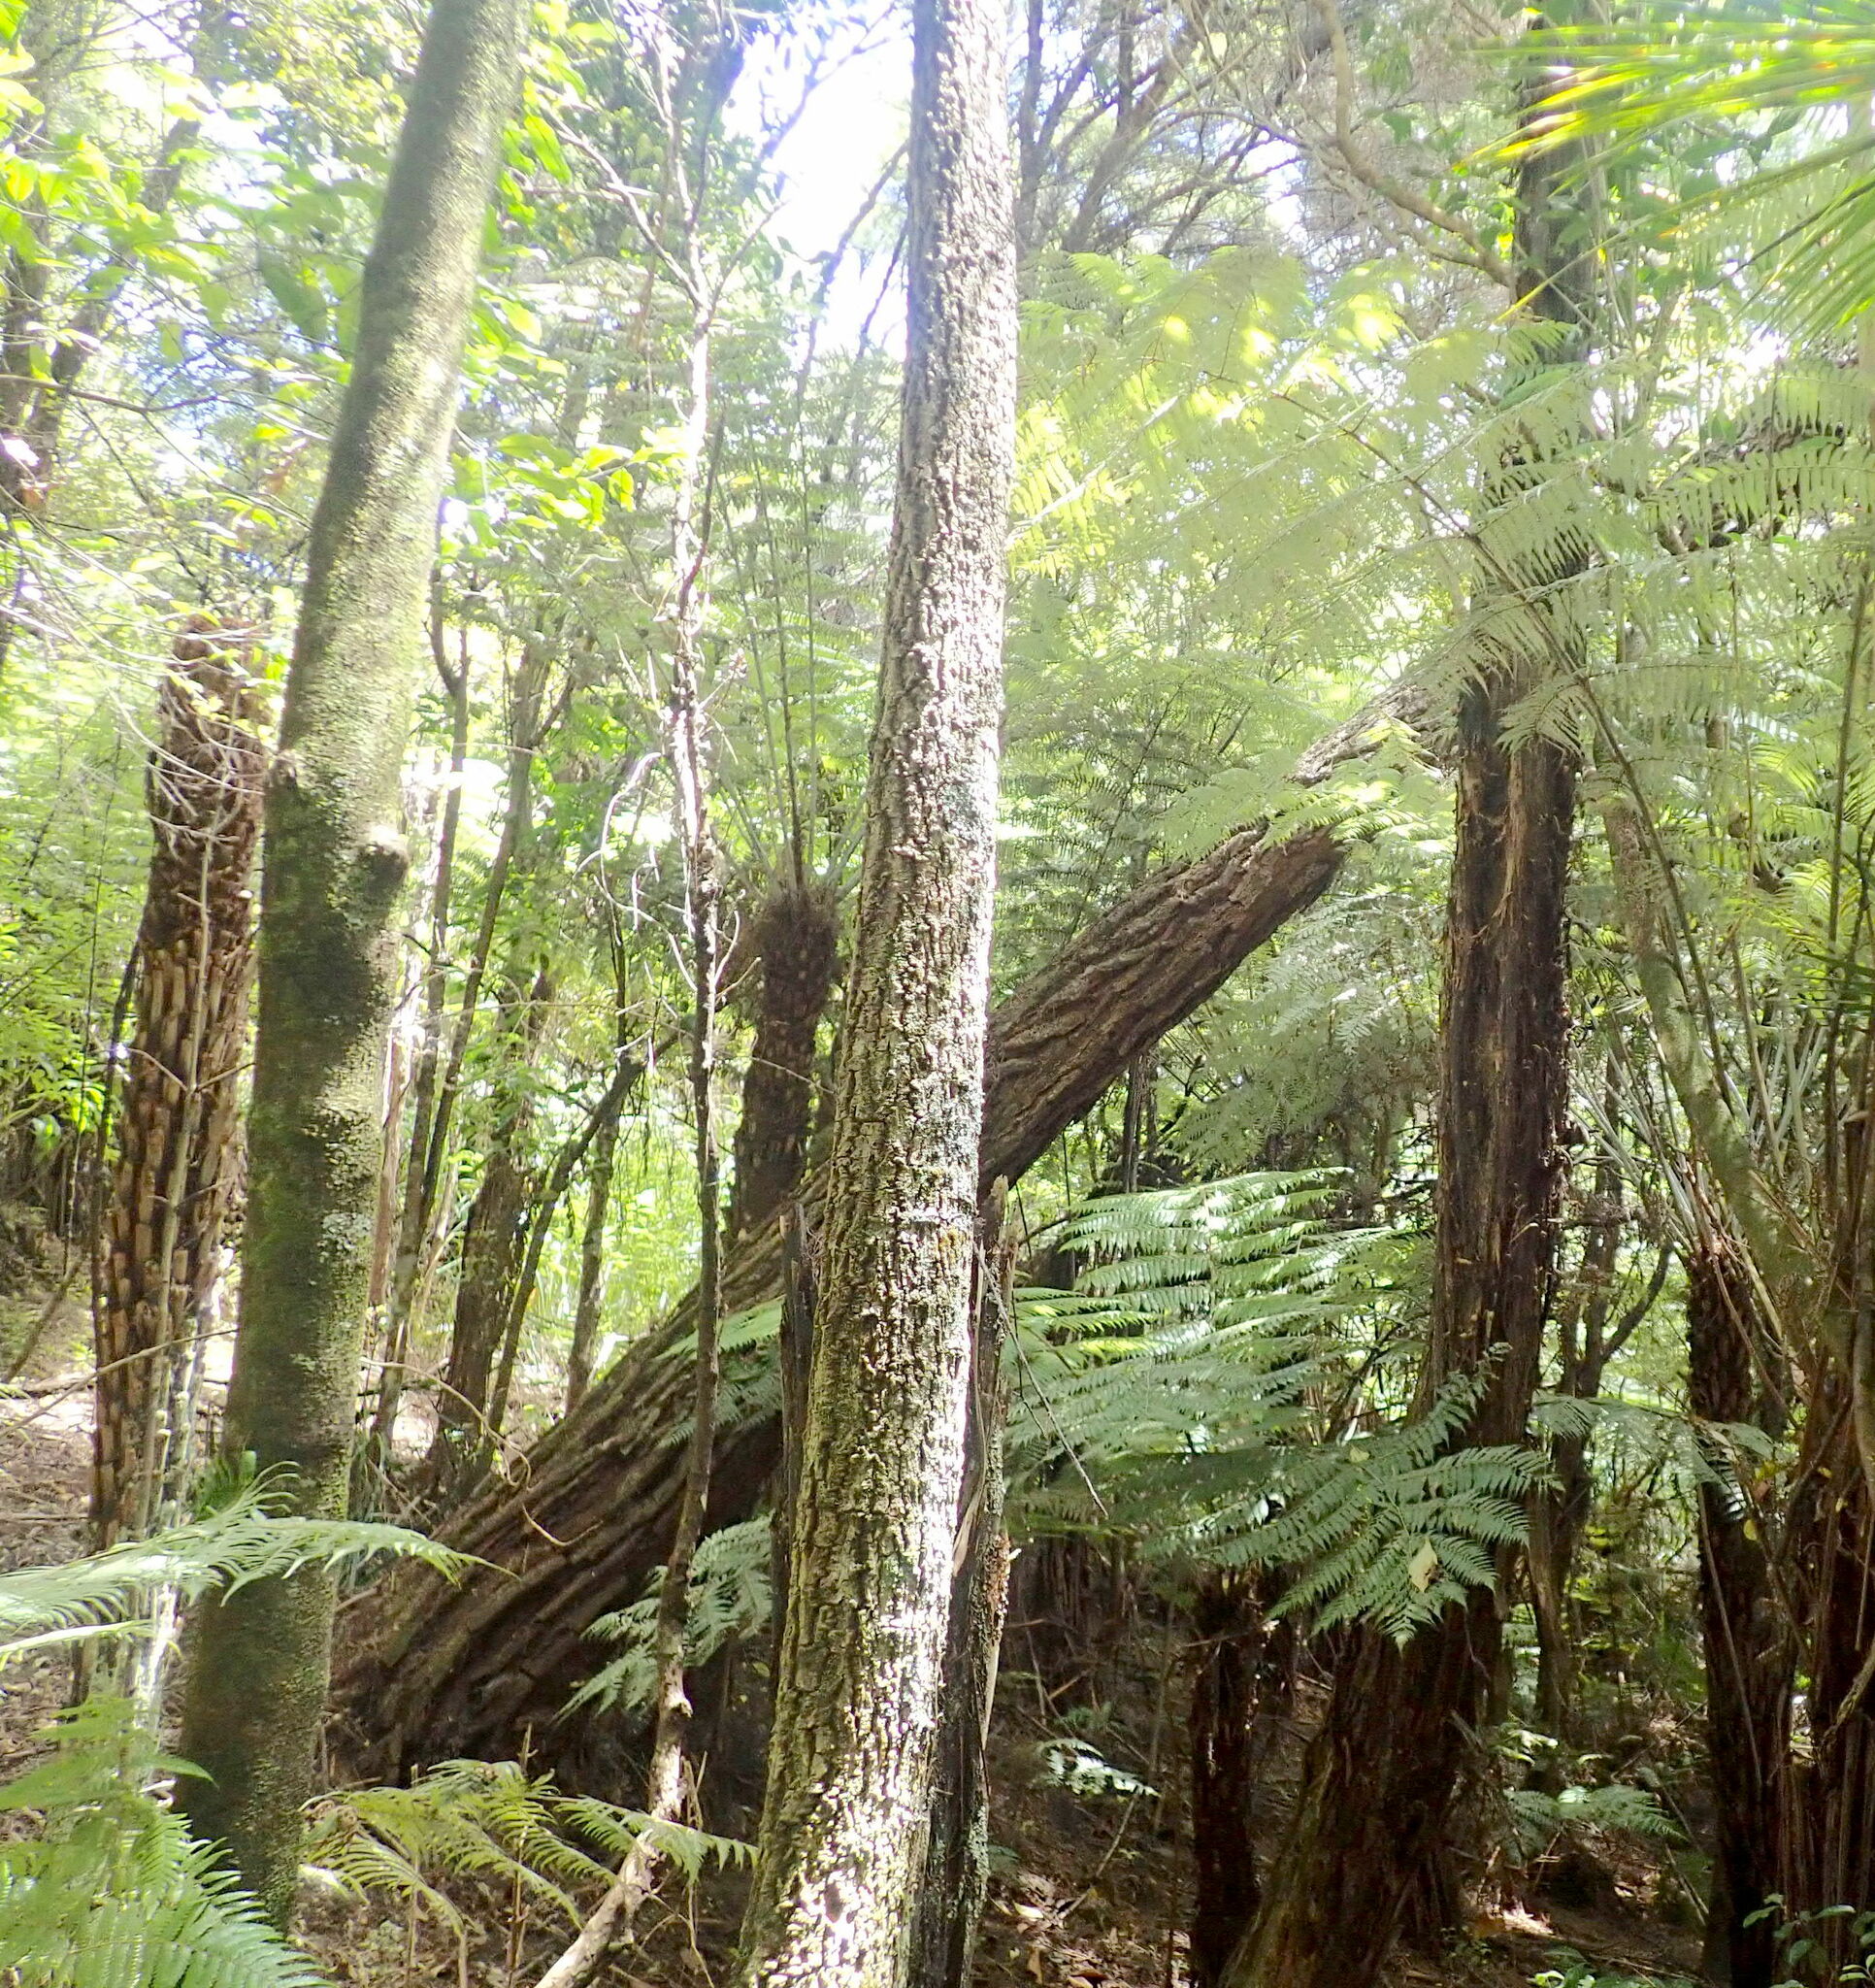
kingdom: Plantae
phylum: Tracheophyta
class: Liliopsida
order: Asparagales
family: Asparagaceae
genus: Cordyline
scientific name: Cordyline australis
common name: Cabbage-palm
